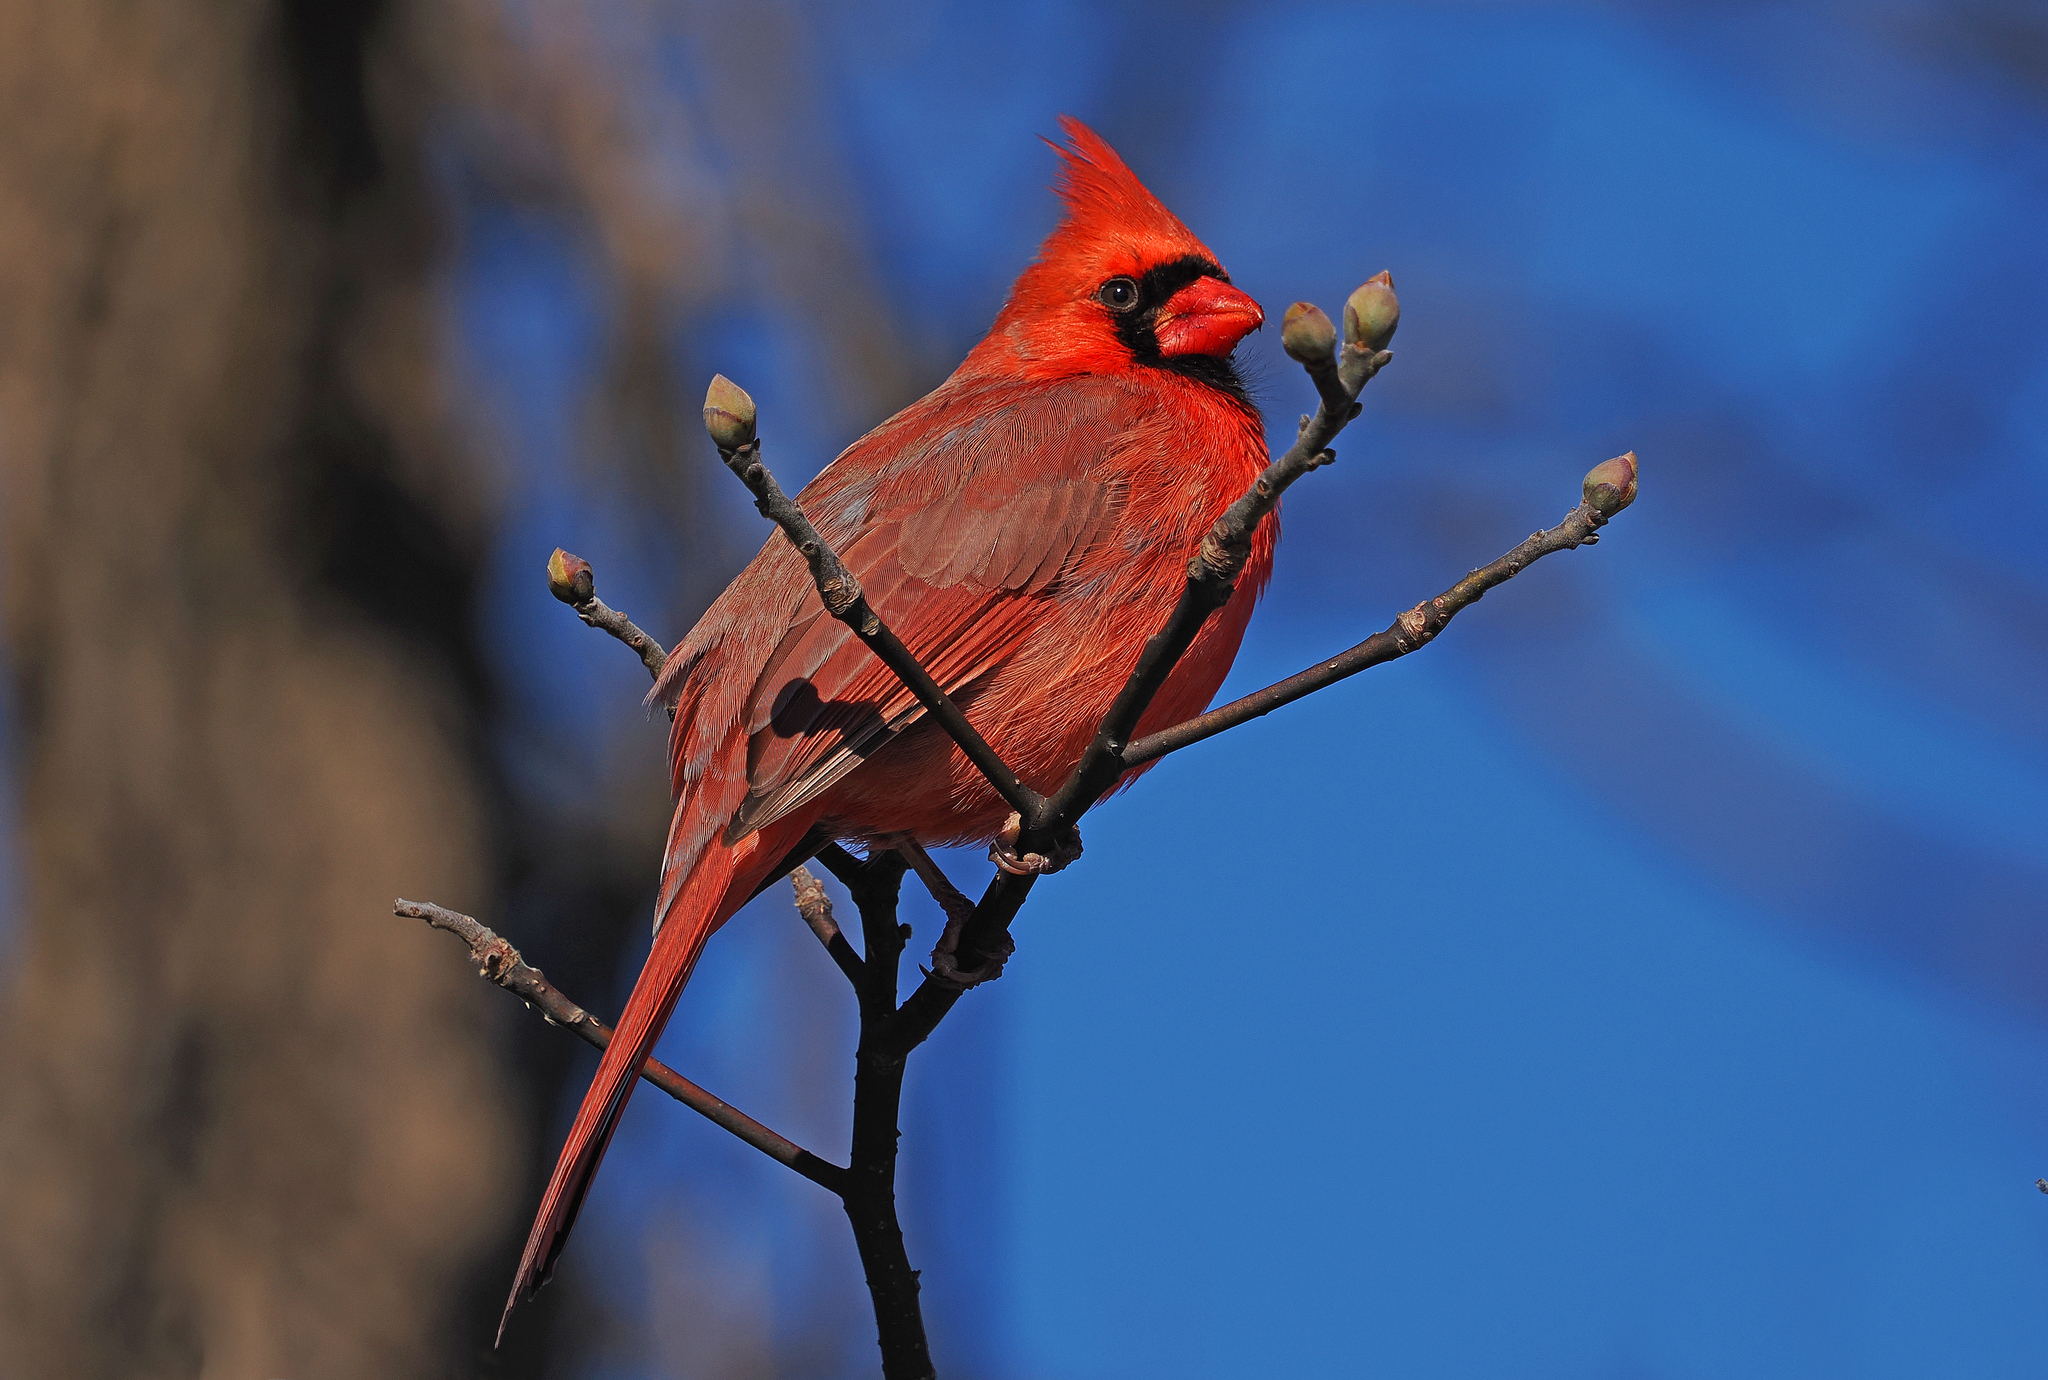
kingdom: Animalia
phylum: Chordata
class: Aves
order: Passeriformes
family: Cardinalidae
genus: Cardinalis
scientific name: Cardinalis cardinalis
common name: Northern cardinal
